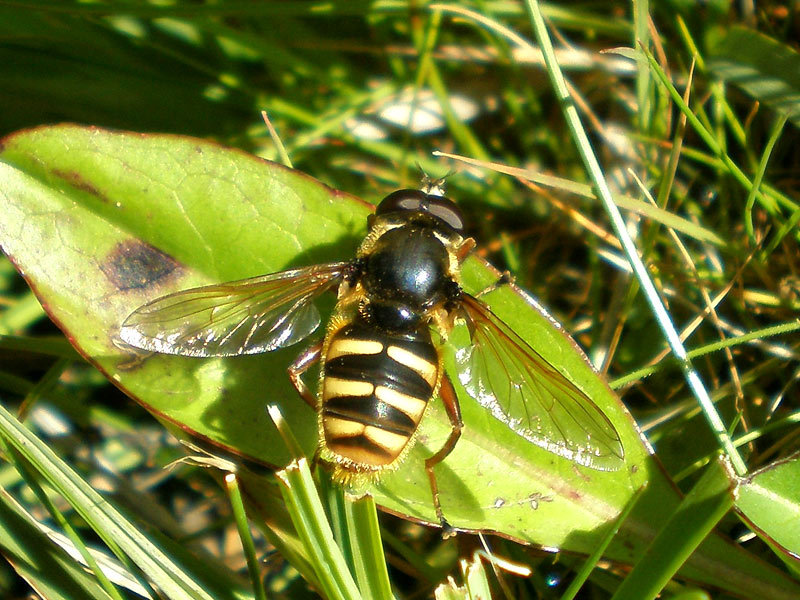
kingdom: Animalia
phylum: Arthropoda
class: Insecta
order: Diptera
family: Syrphidae
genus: Sericomyia
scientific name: Sericomyia silentis
